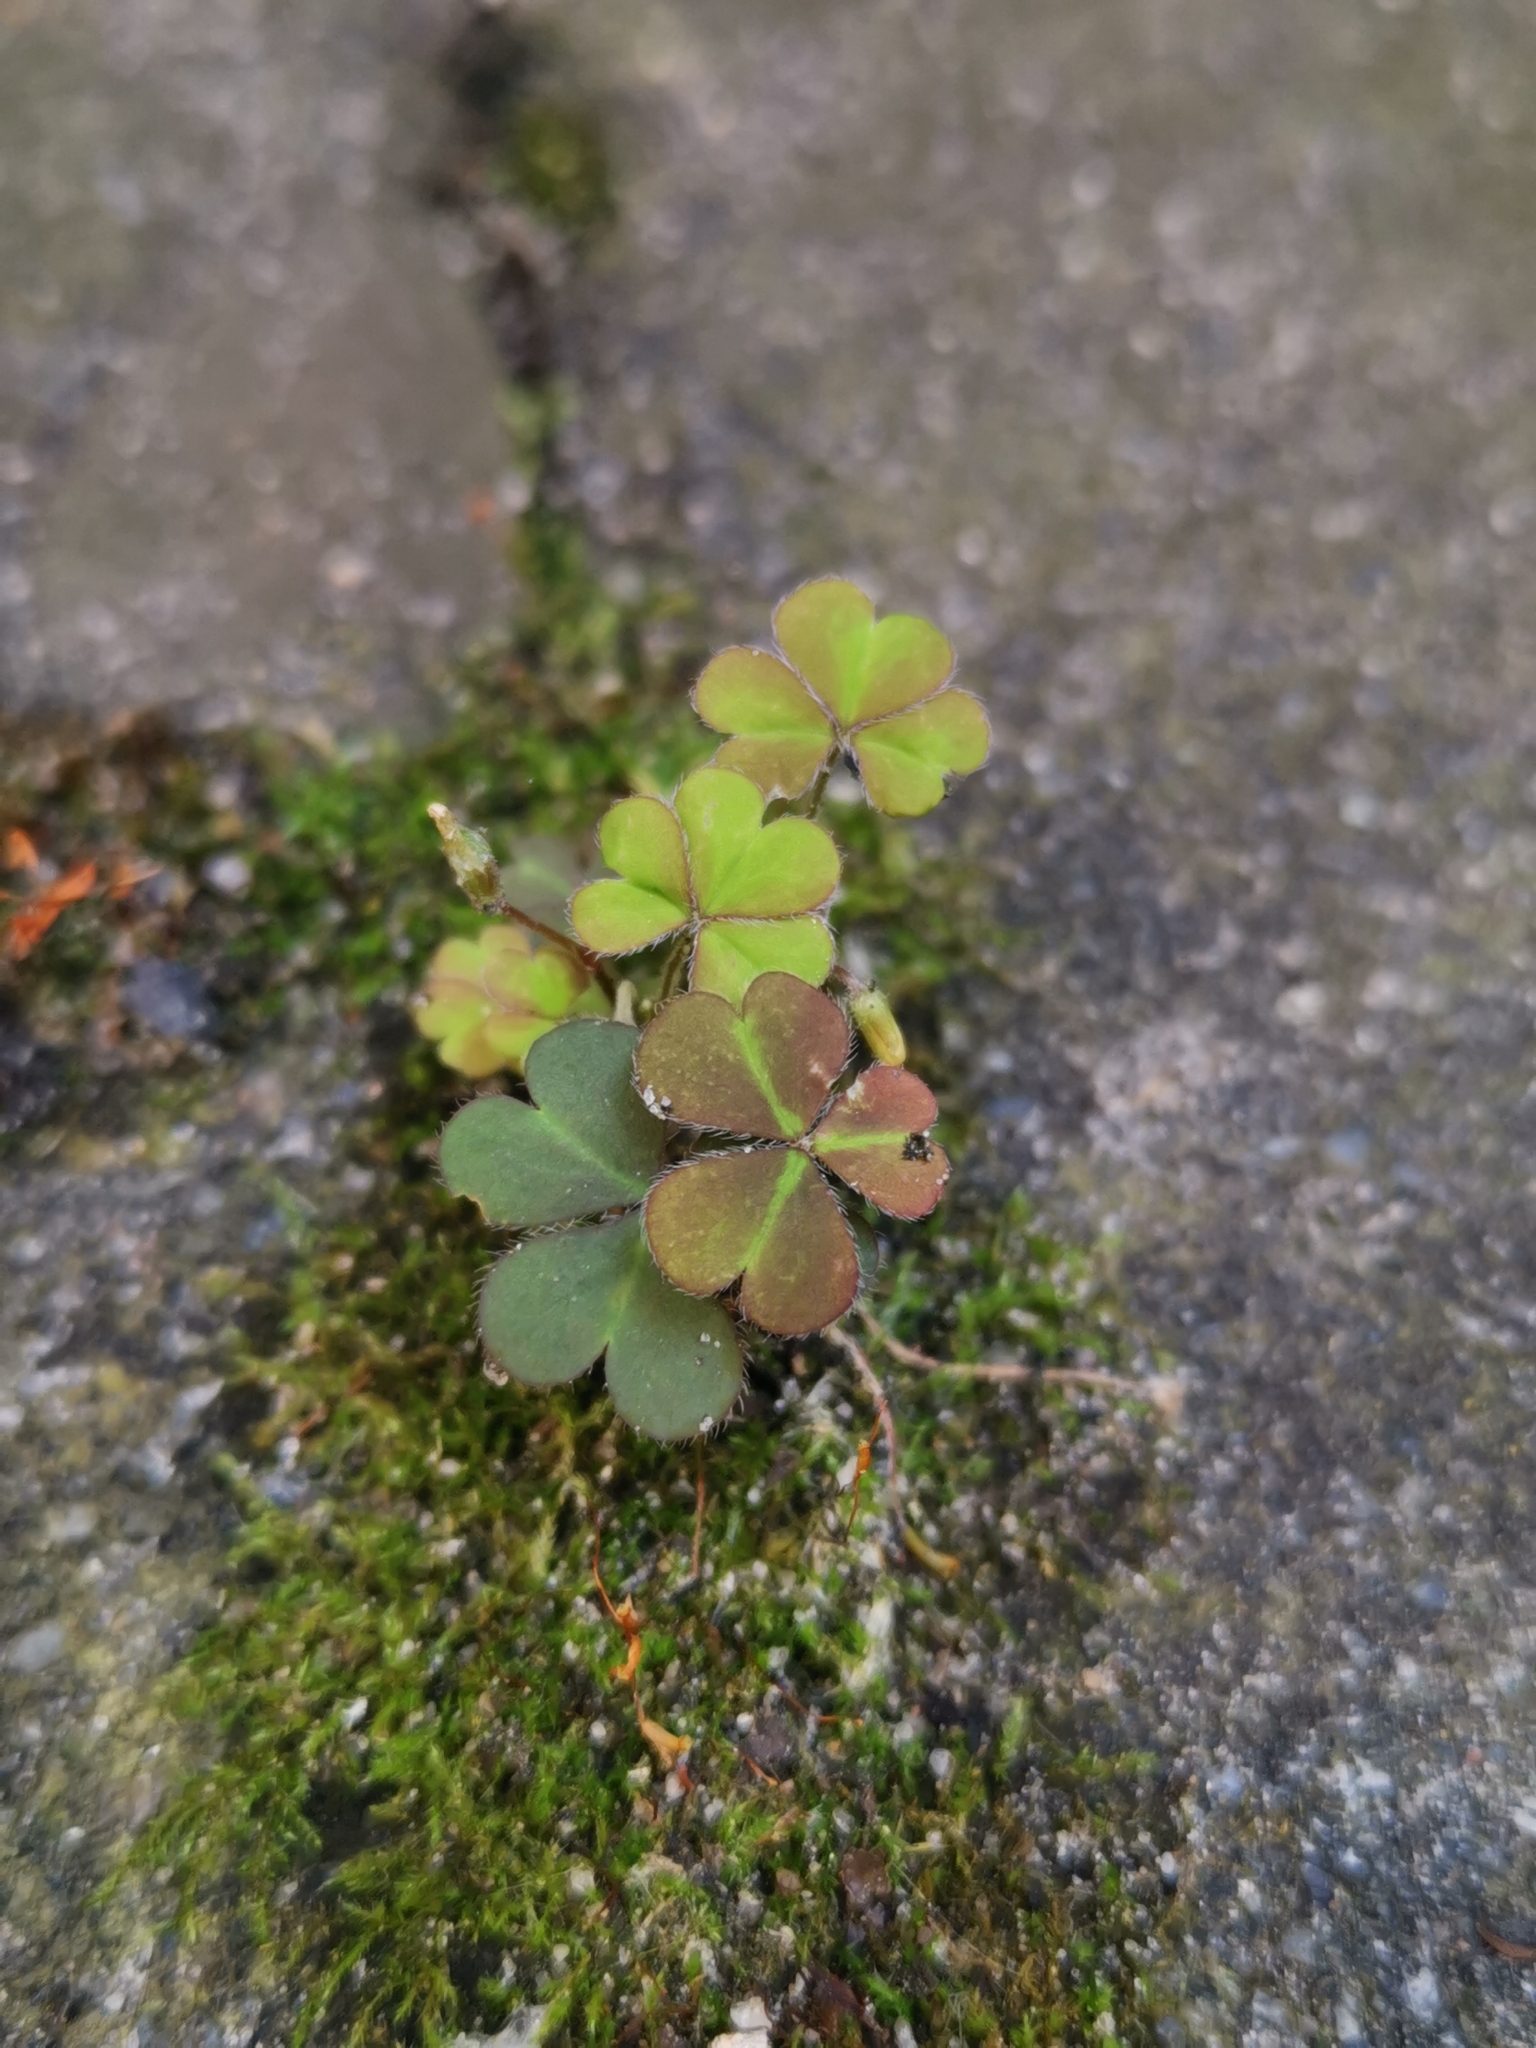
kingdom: Plantae
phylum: Tracheophyta
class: Magnoliopsida
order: Oxalidales
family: Oxalidaceae
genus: Oxalis
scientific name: Oxalis corniculata
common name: Procumbent yellow-sorrel
